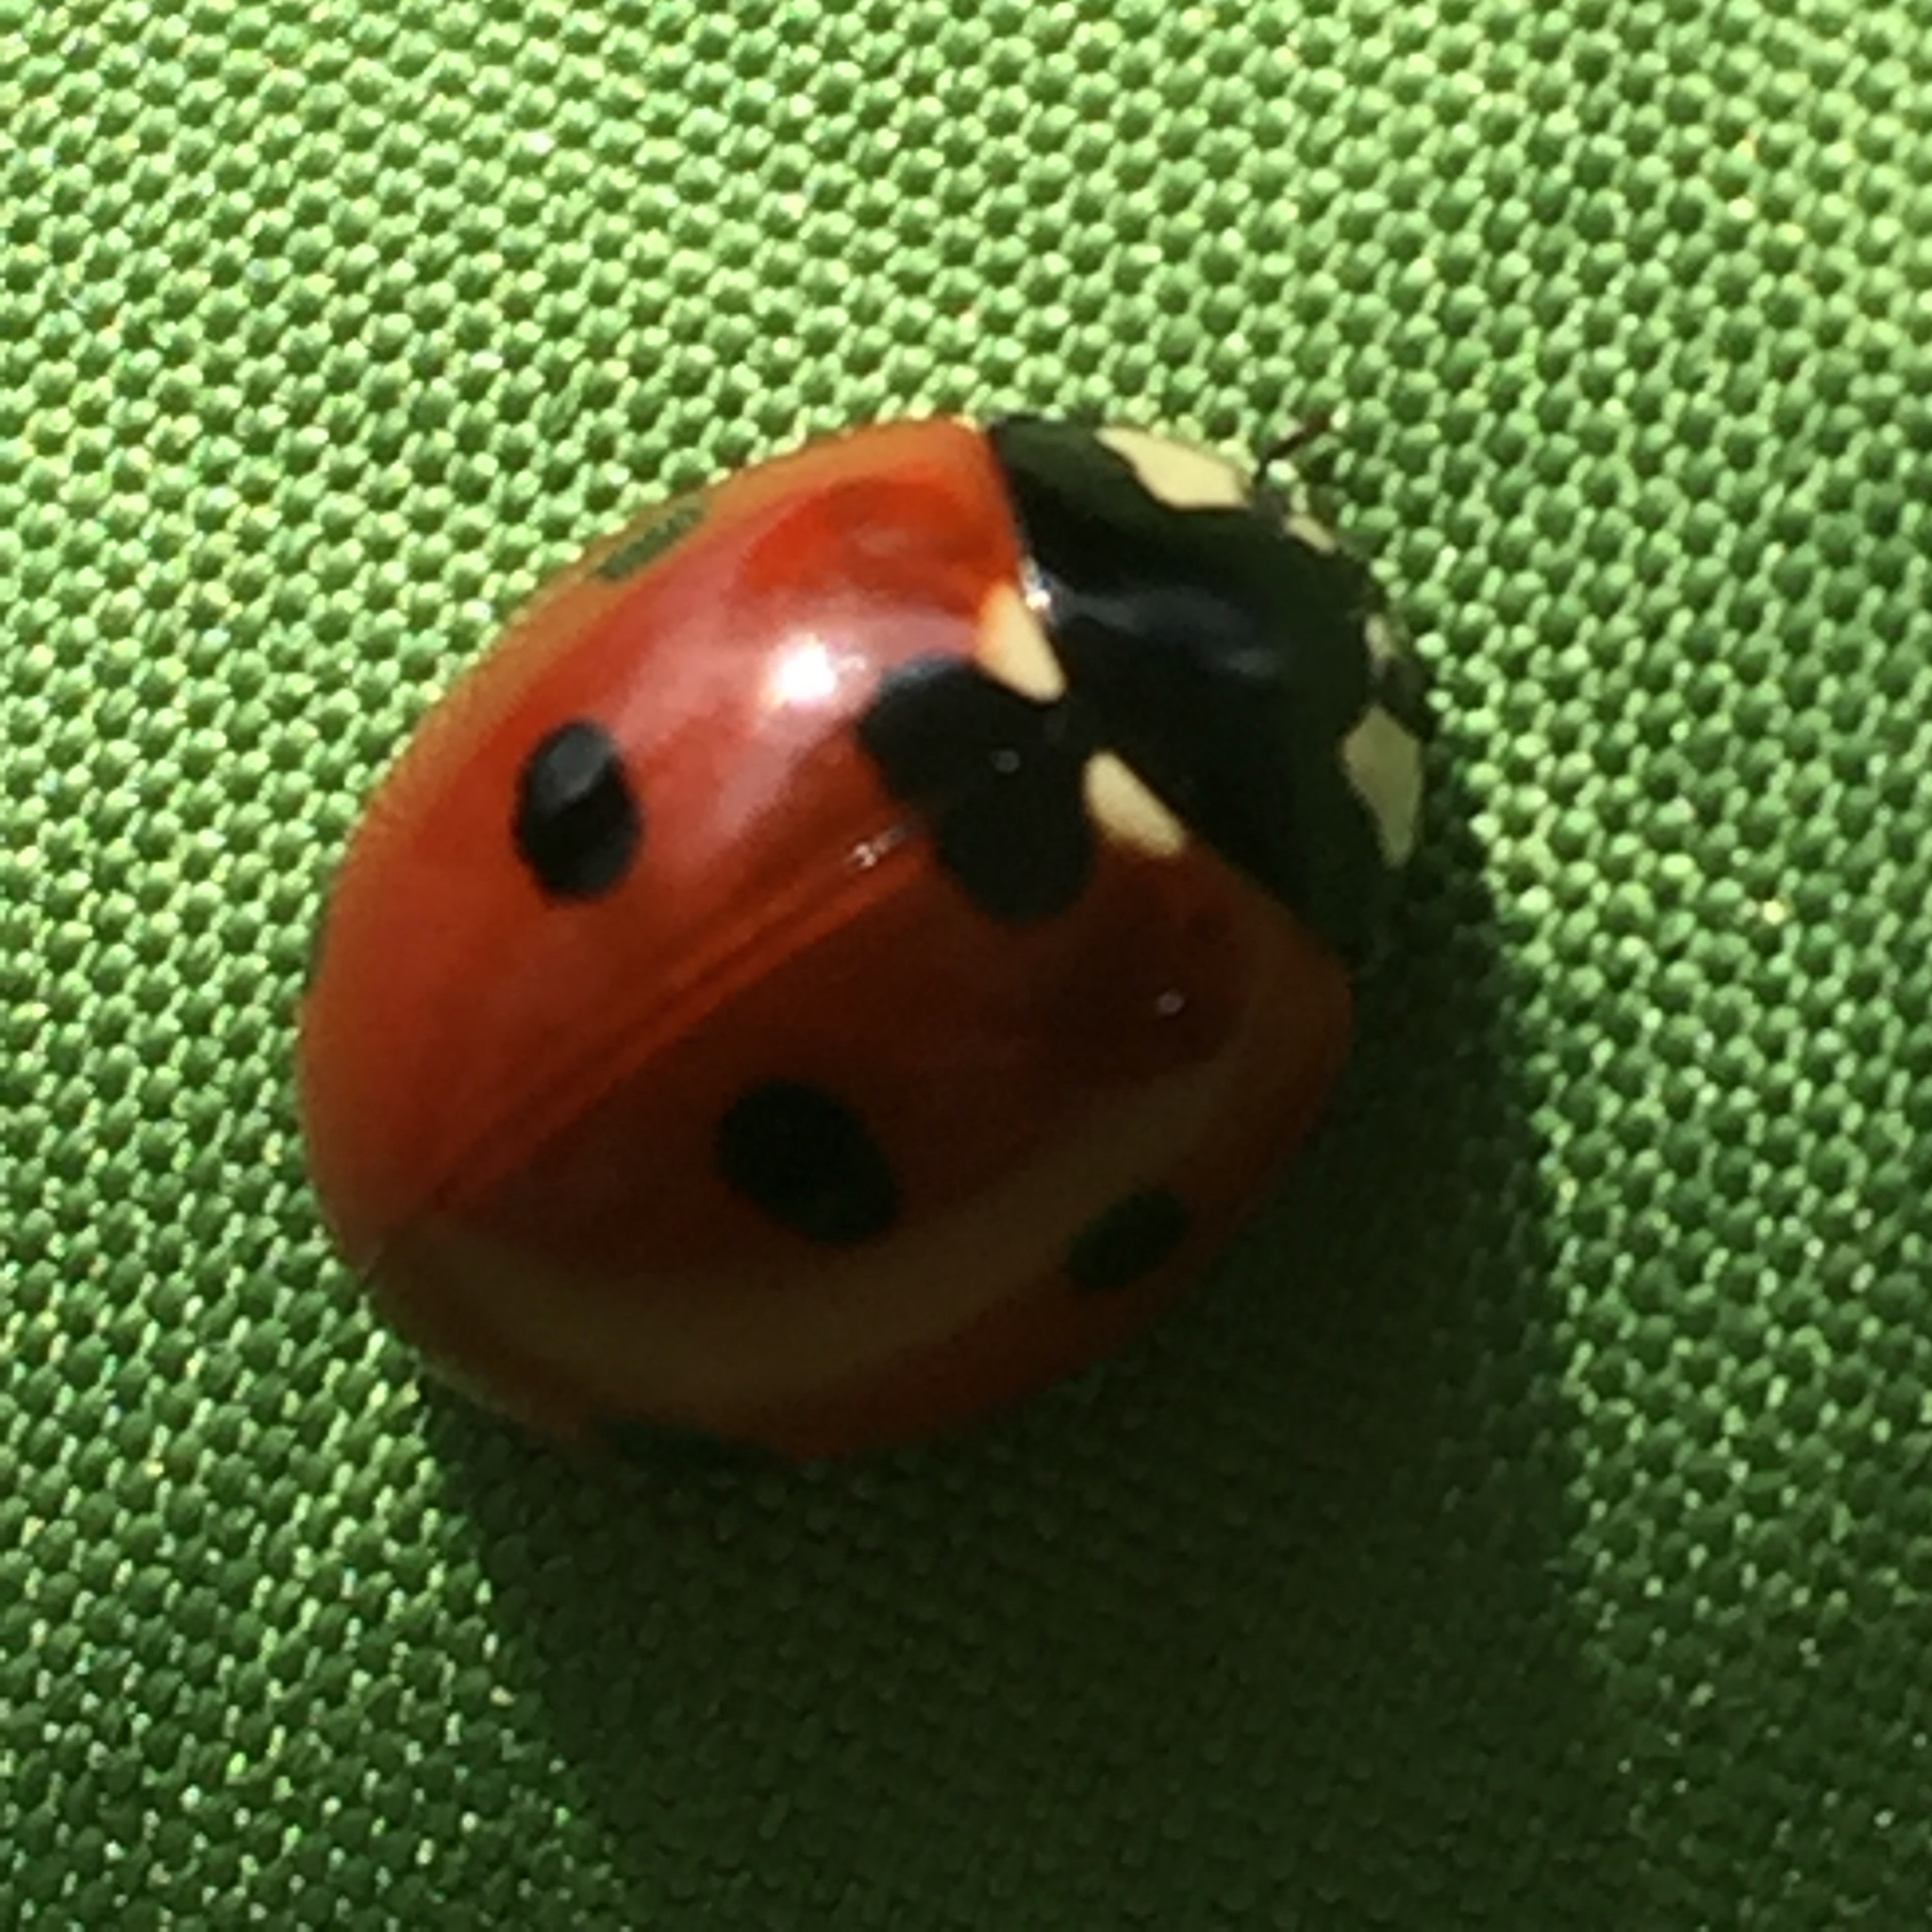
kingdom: Animalia
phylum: Arthropoda
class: Insecta
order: Coleoptera
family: Coccinellidae
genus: Coccinella
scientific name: Coccinella septempunctata
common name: Sevenspotted lady beetle
